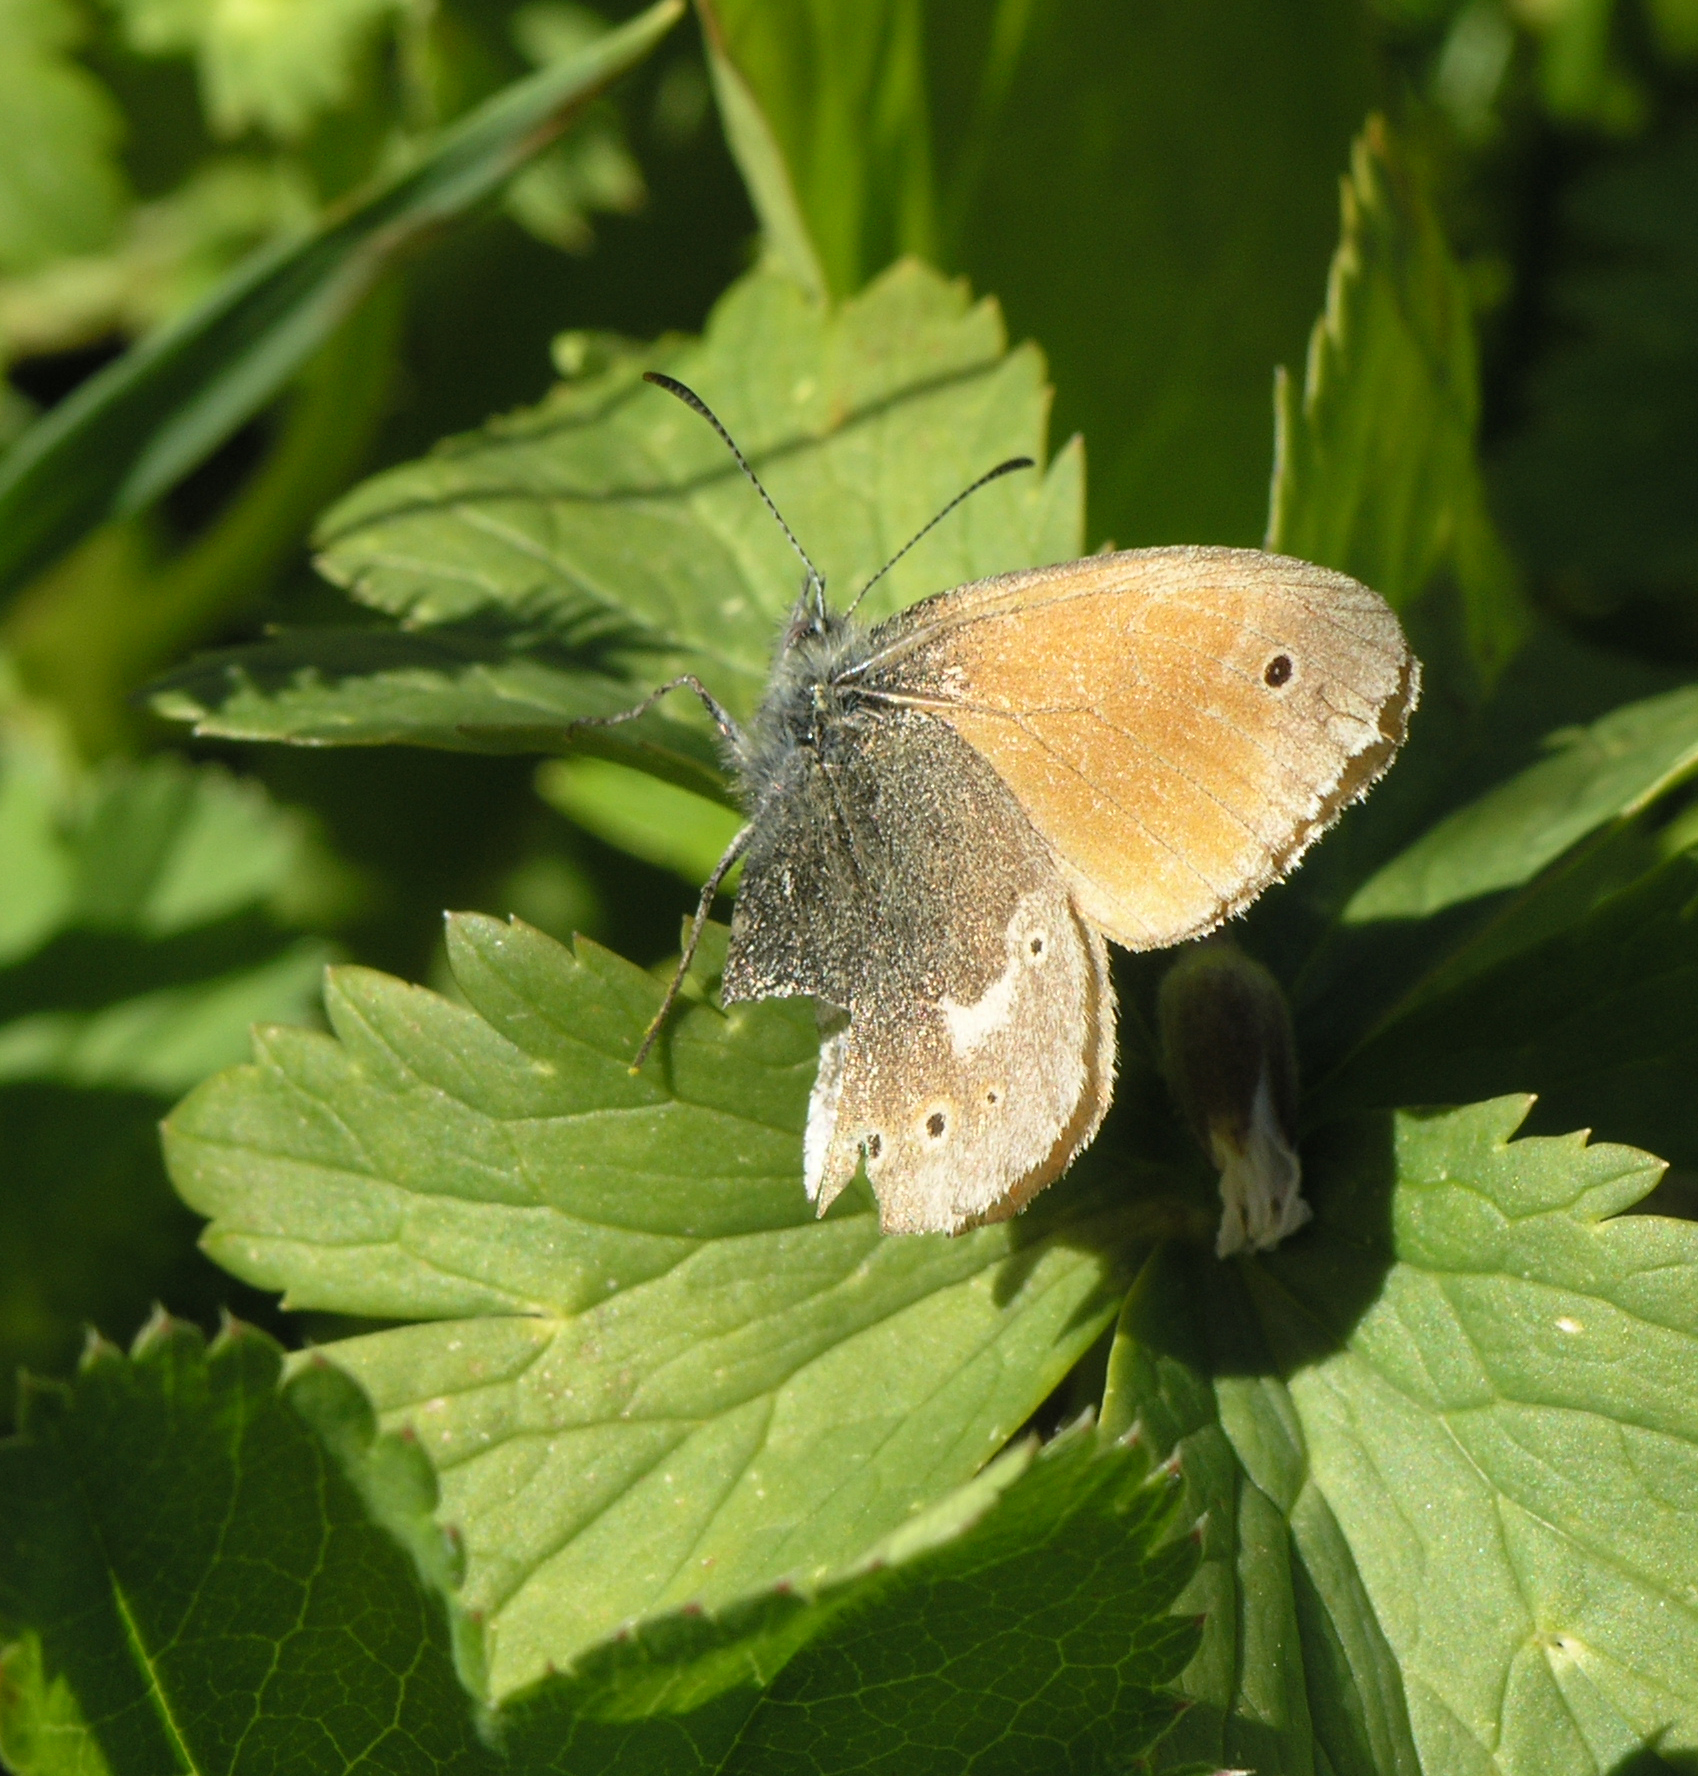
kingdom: Animalia
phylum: Arthropoda
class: Insecta
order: Lepidoptera
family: Nymphalidae
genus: Coenonympha
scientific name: Coenonympha tullia
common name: Large heath
